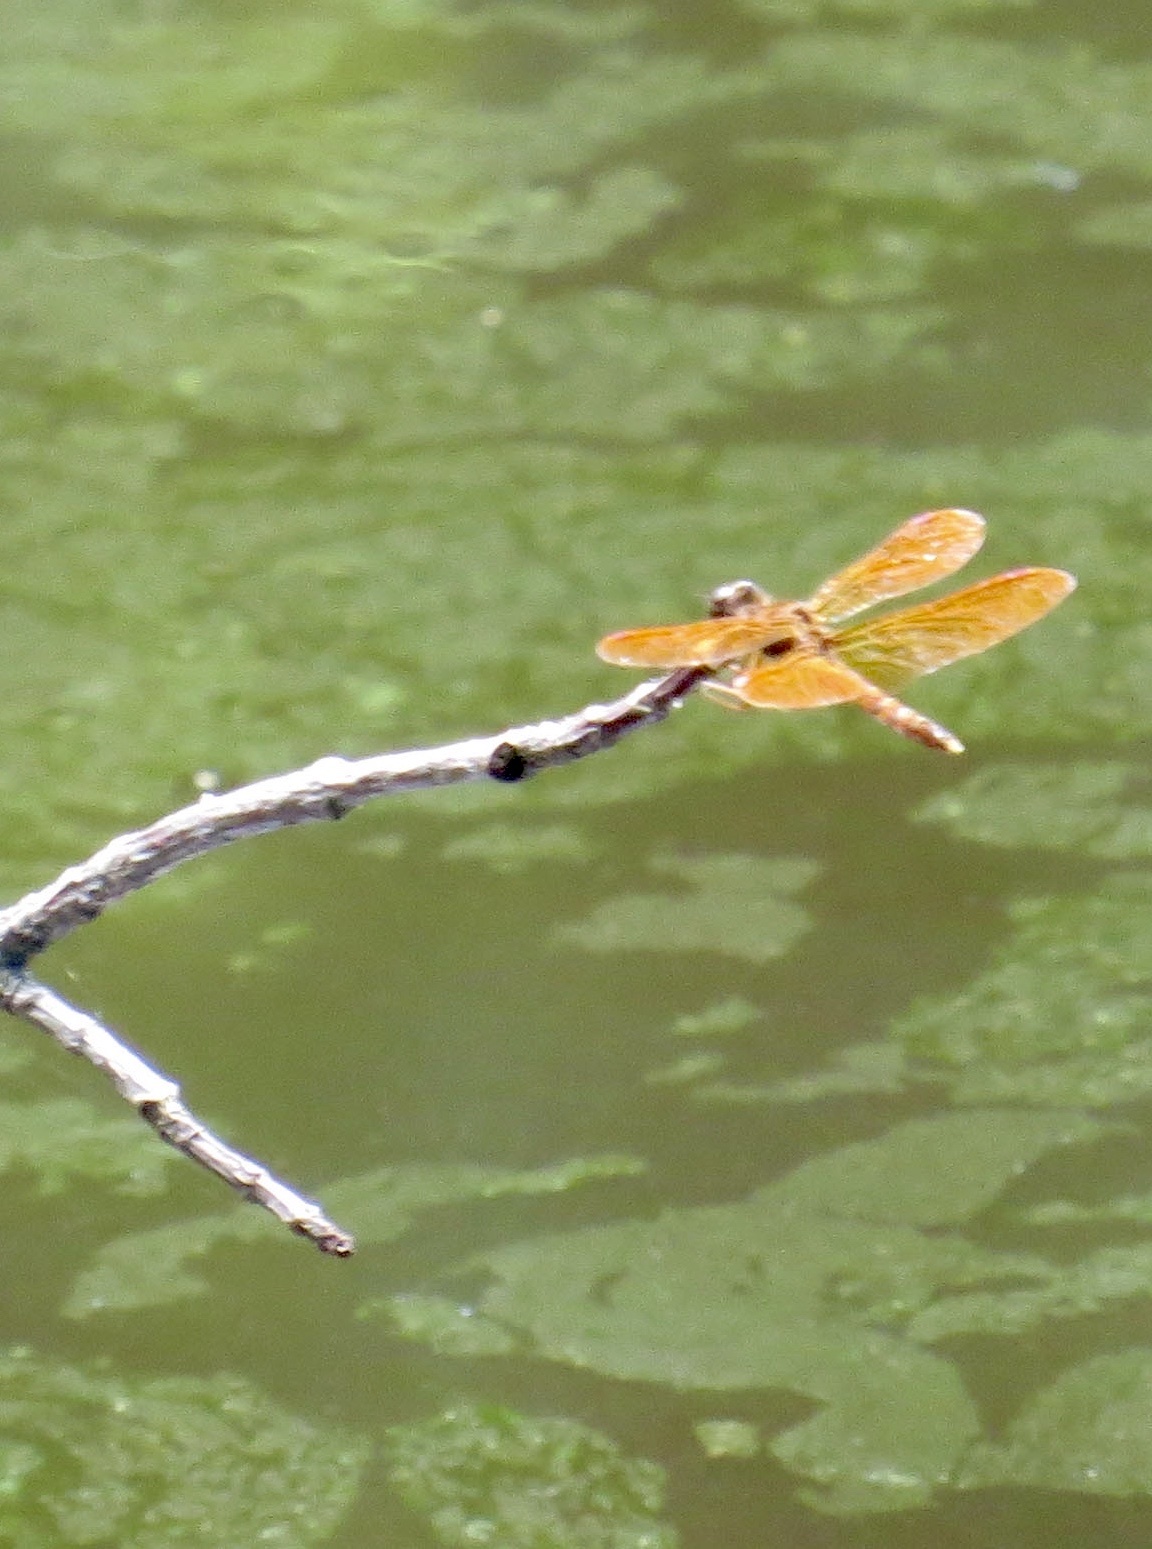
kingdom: Animalia
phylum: Arthropoda
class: Insecta
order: Odonata
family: Libellulidae
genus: Perithemis
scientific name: Perithemis tenera
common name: Eastern amberwing
